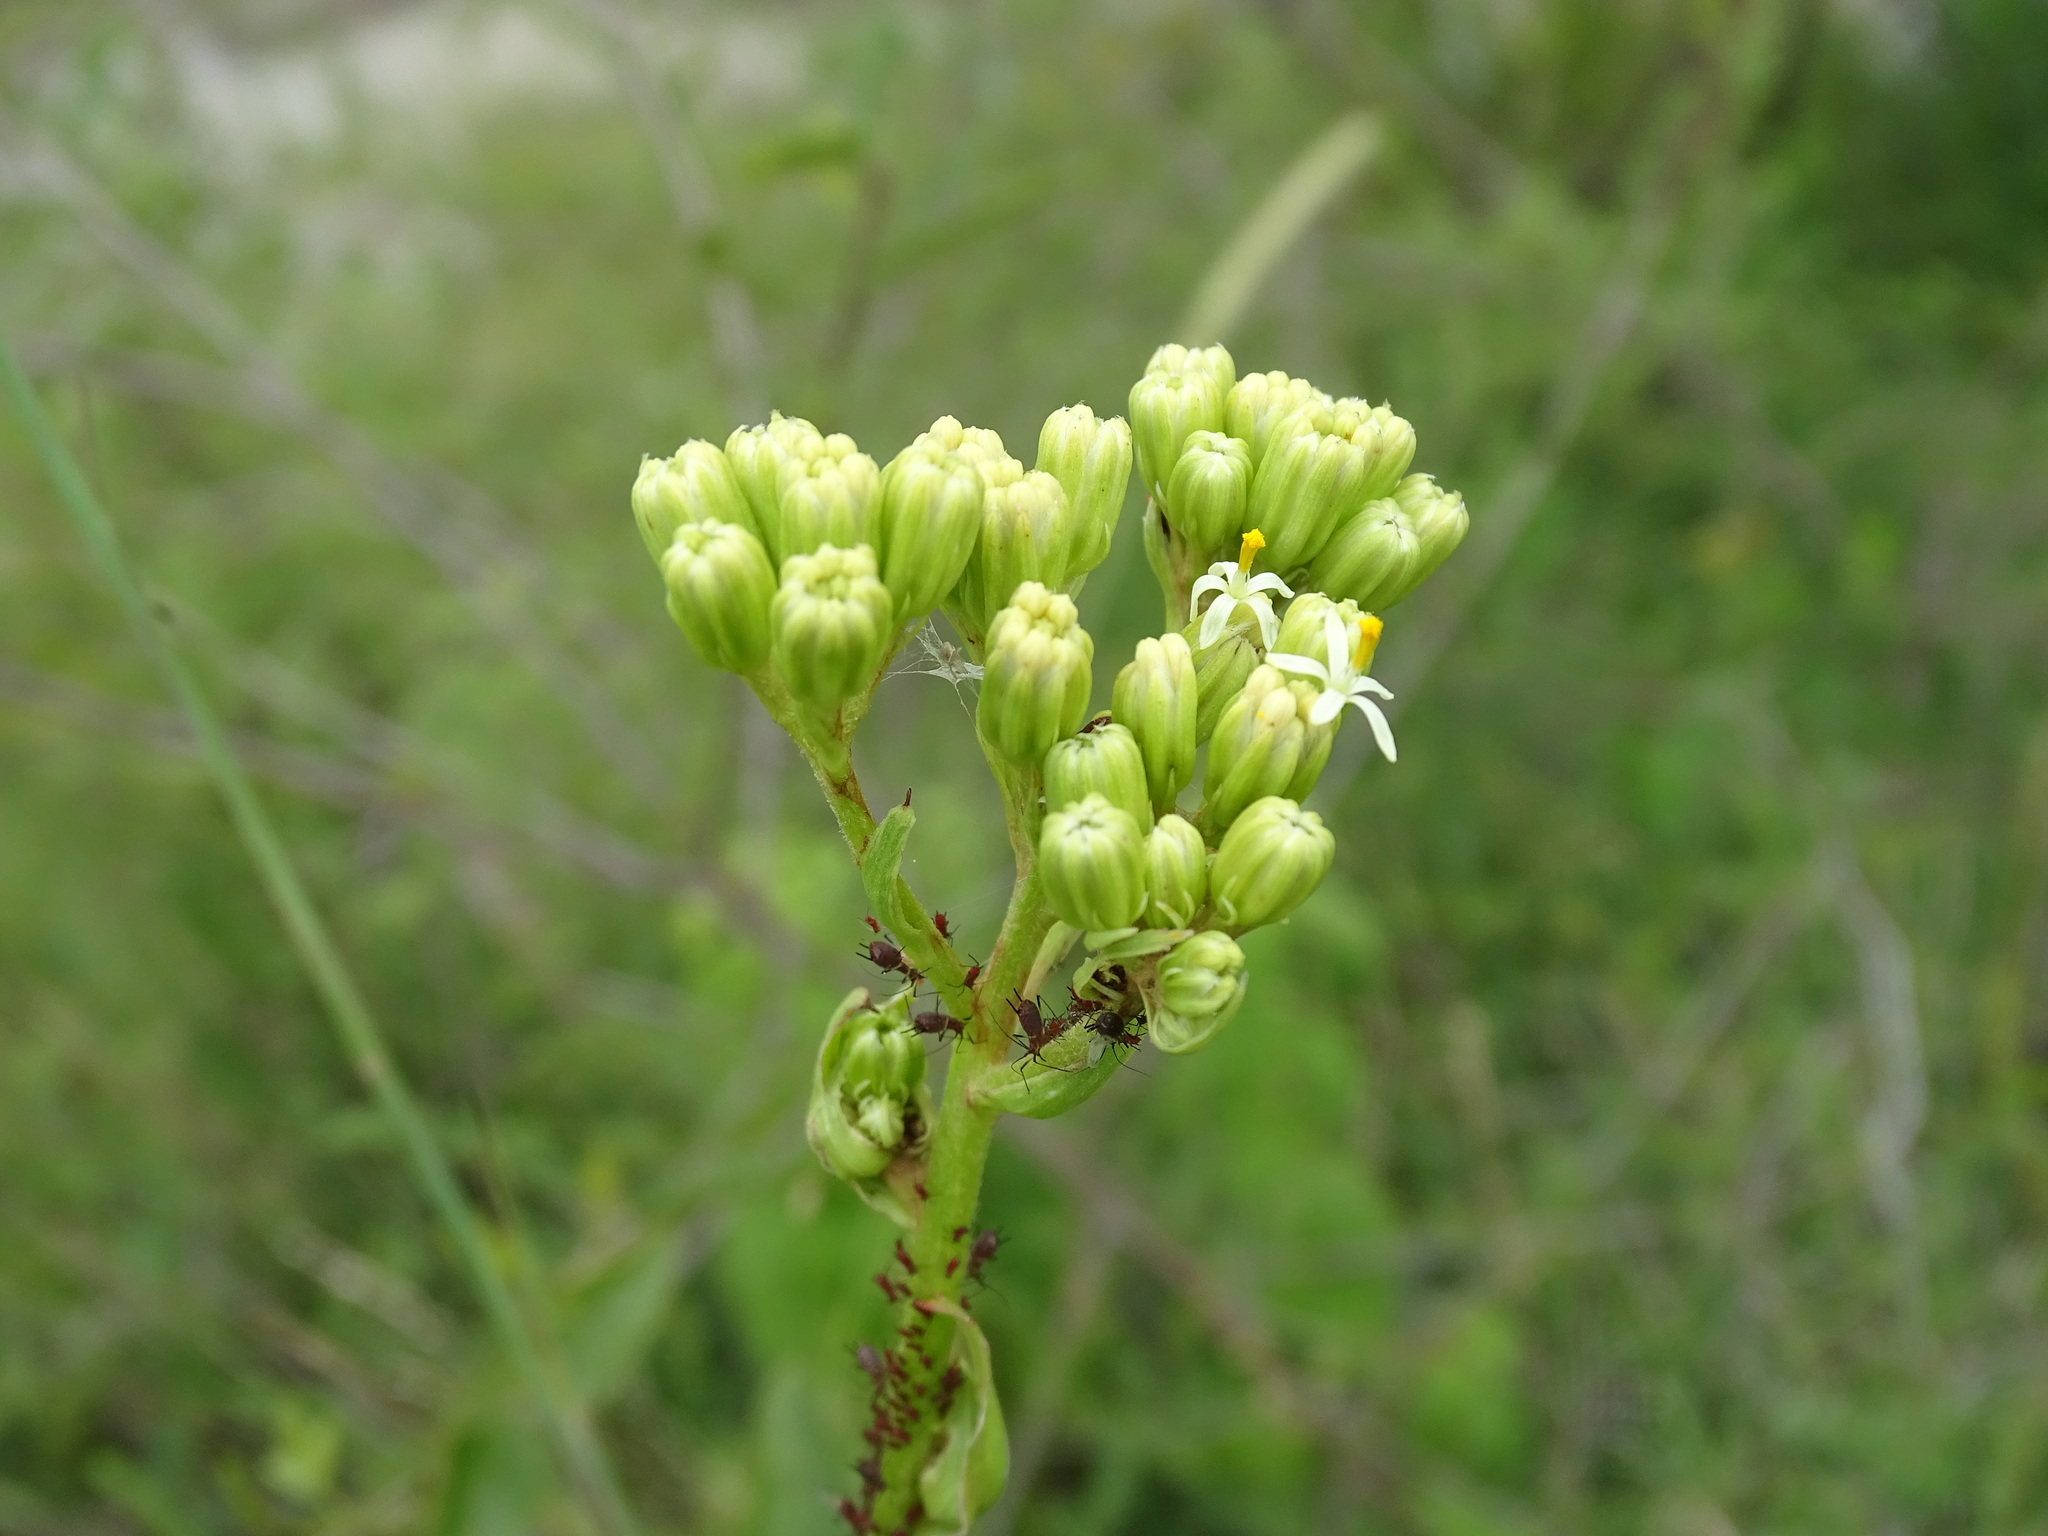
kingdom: Plantae
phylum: Tracheophyta
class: Magnoliopsida
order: Asterales
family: Asteraceae
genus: Psacalium
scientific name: Psacalium sinuatum
